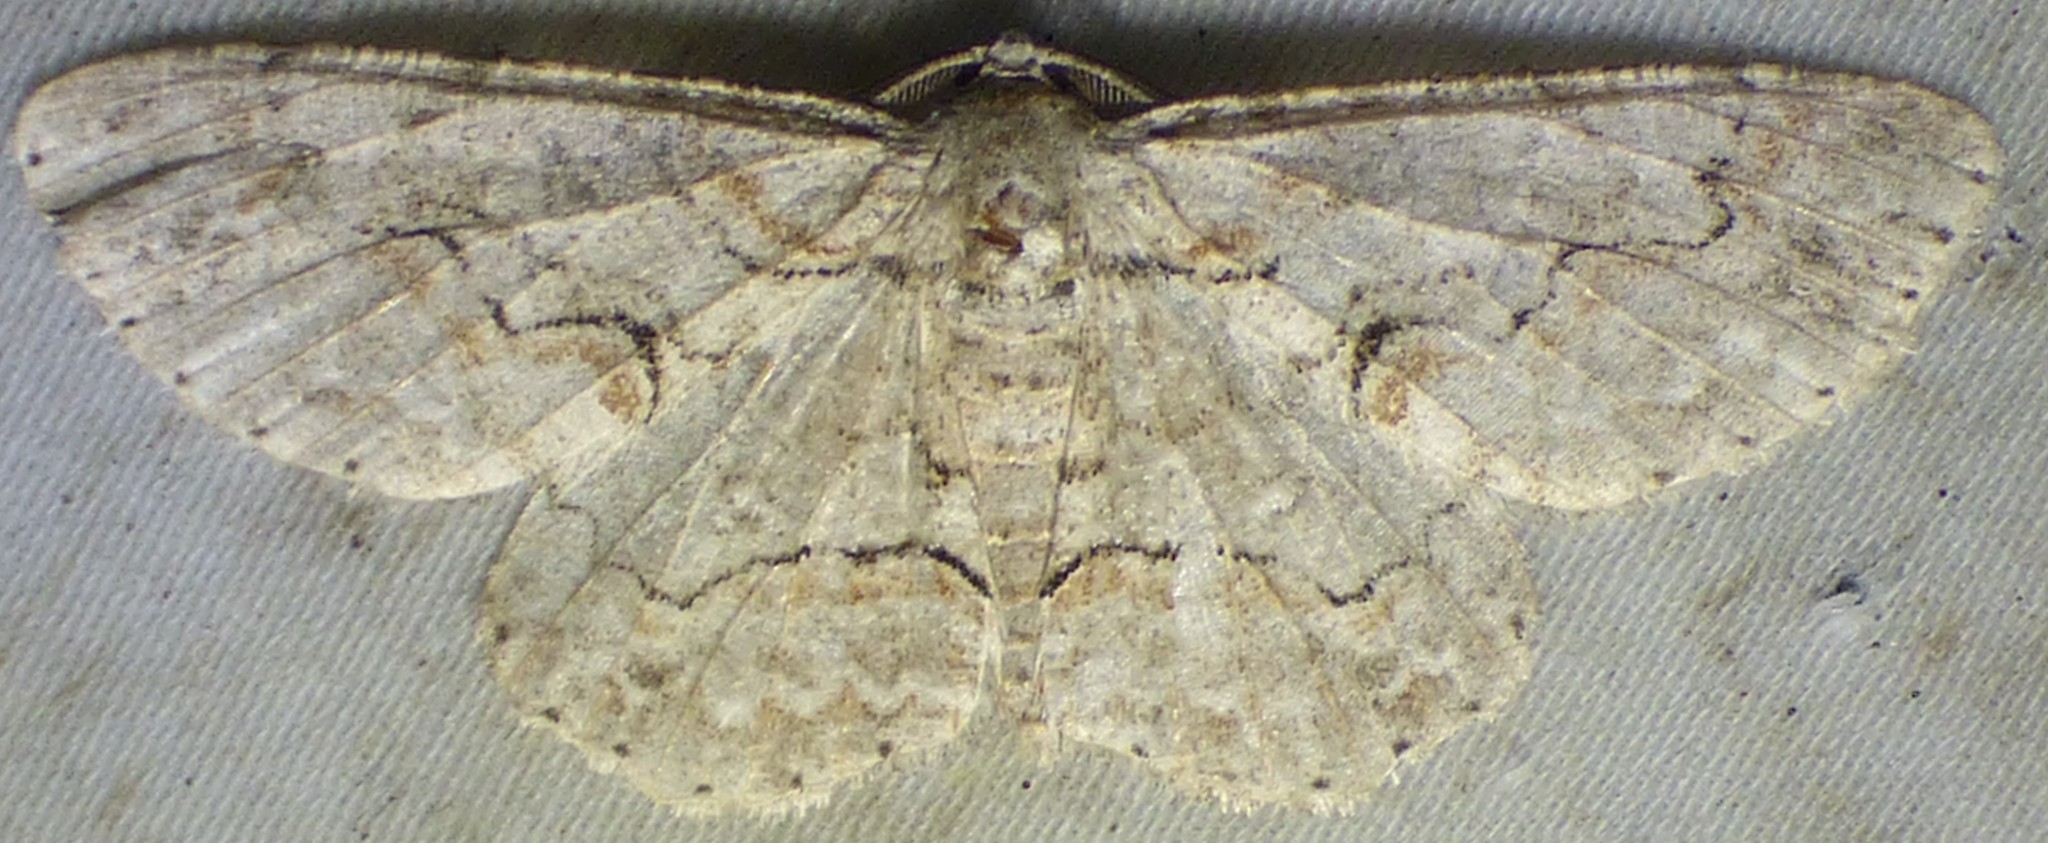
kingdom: Animalia
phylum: Arthropoda
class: Insecta
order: Lepidoptera
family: Geometridae
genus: Iridopsis
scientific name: Iridopsis defectaria
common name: Brown-shaded gray
